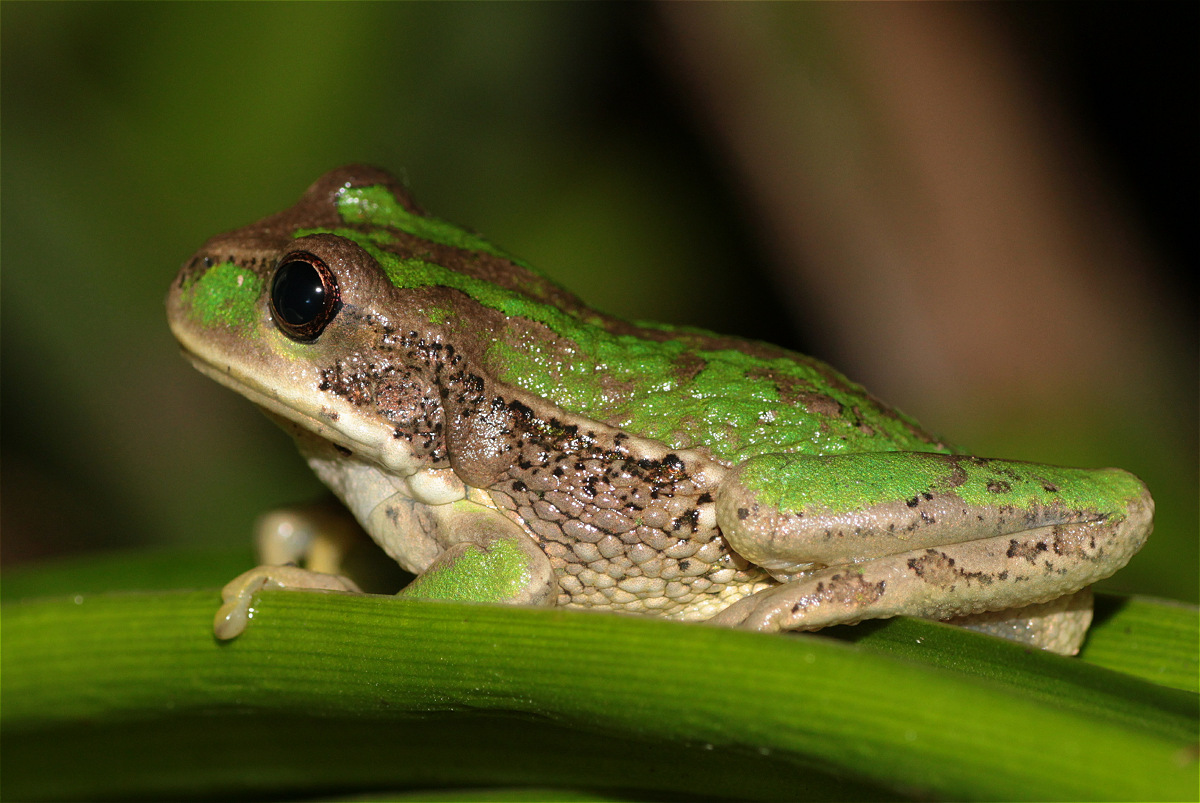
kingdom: Animalia
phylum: Chordata
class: Amphibia
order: Anura
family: Hemiphractidae
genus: Gastrotheca
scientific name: Gastrotheca cuencana
